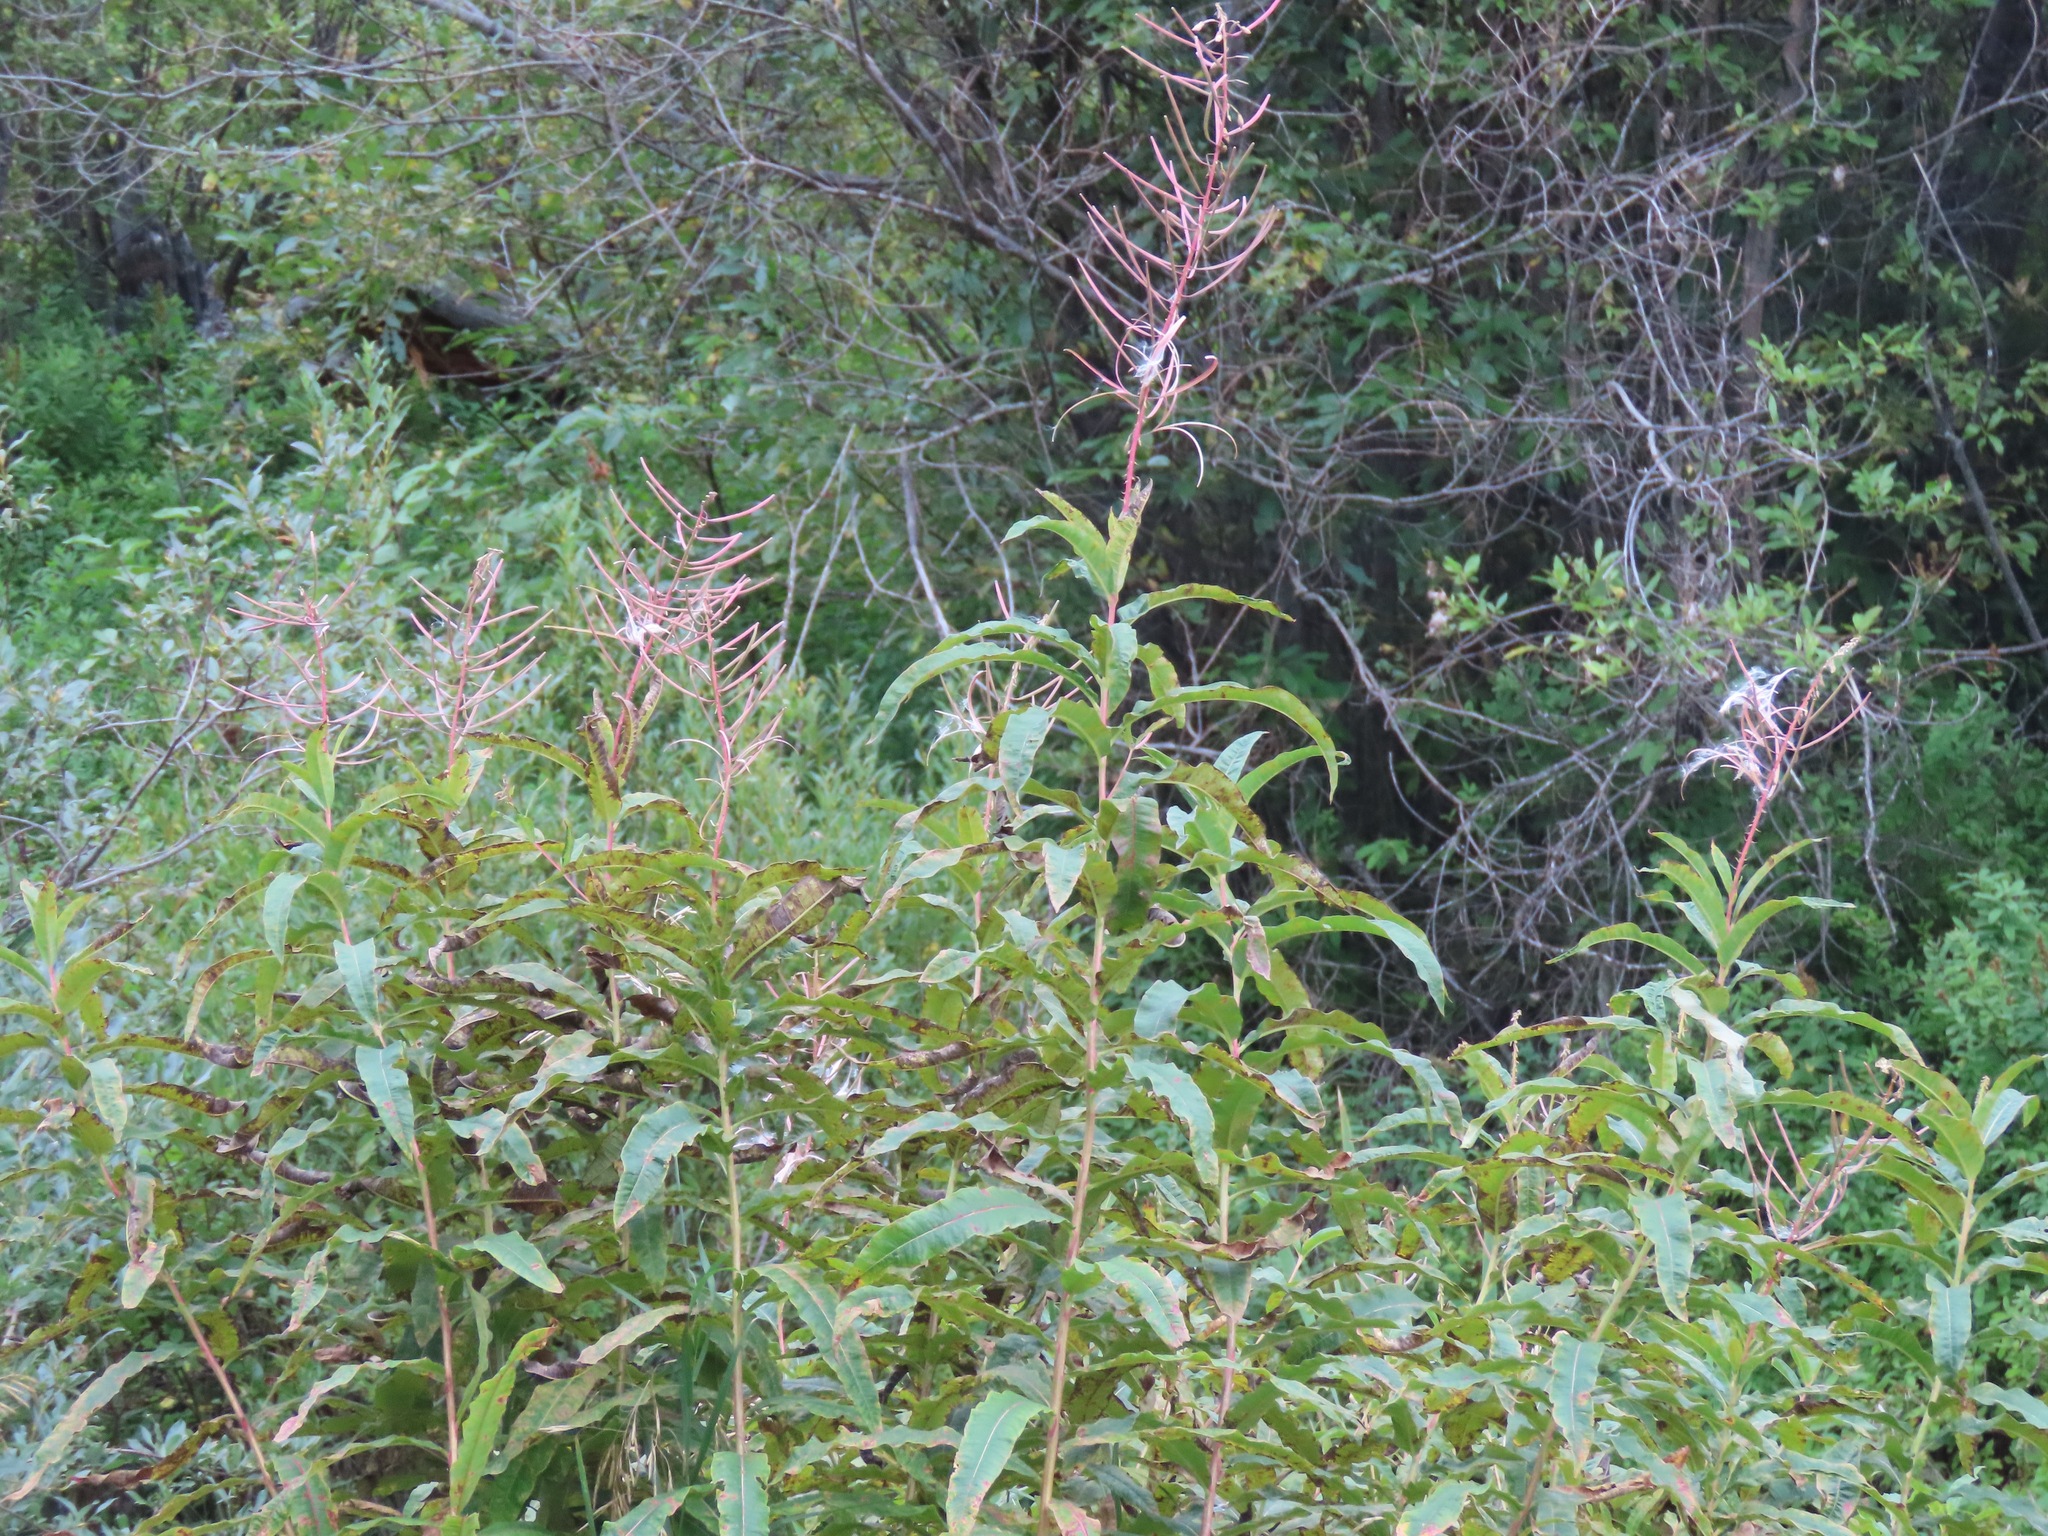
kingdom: Plantae
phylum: Tracheophyta
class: Magnoliopsida
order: Myrtales
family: Onagraceae
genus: Chamaenerion
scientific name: Chamaenerion angustifolium
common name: Fireweed
